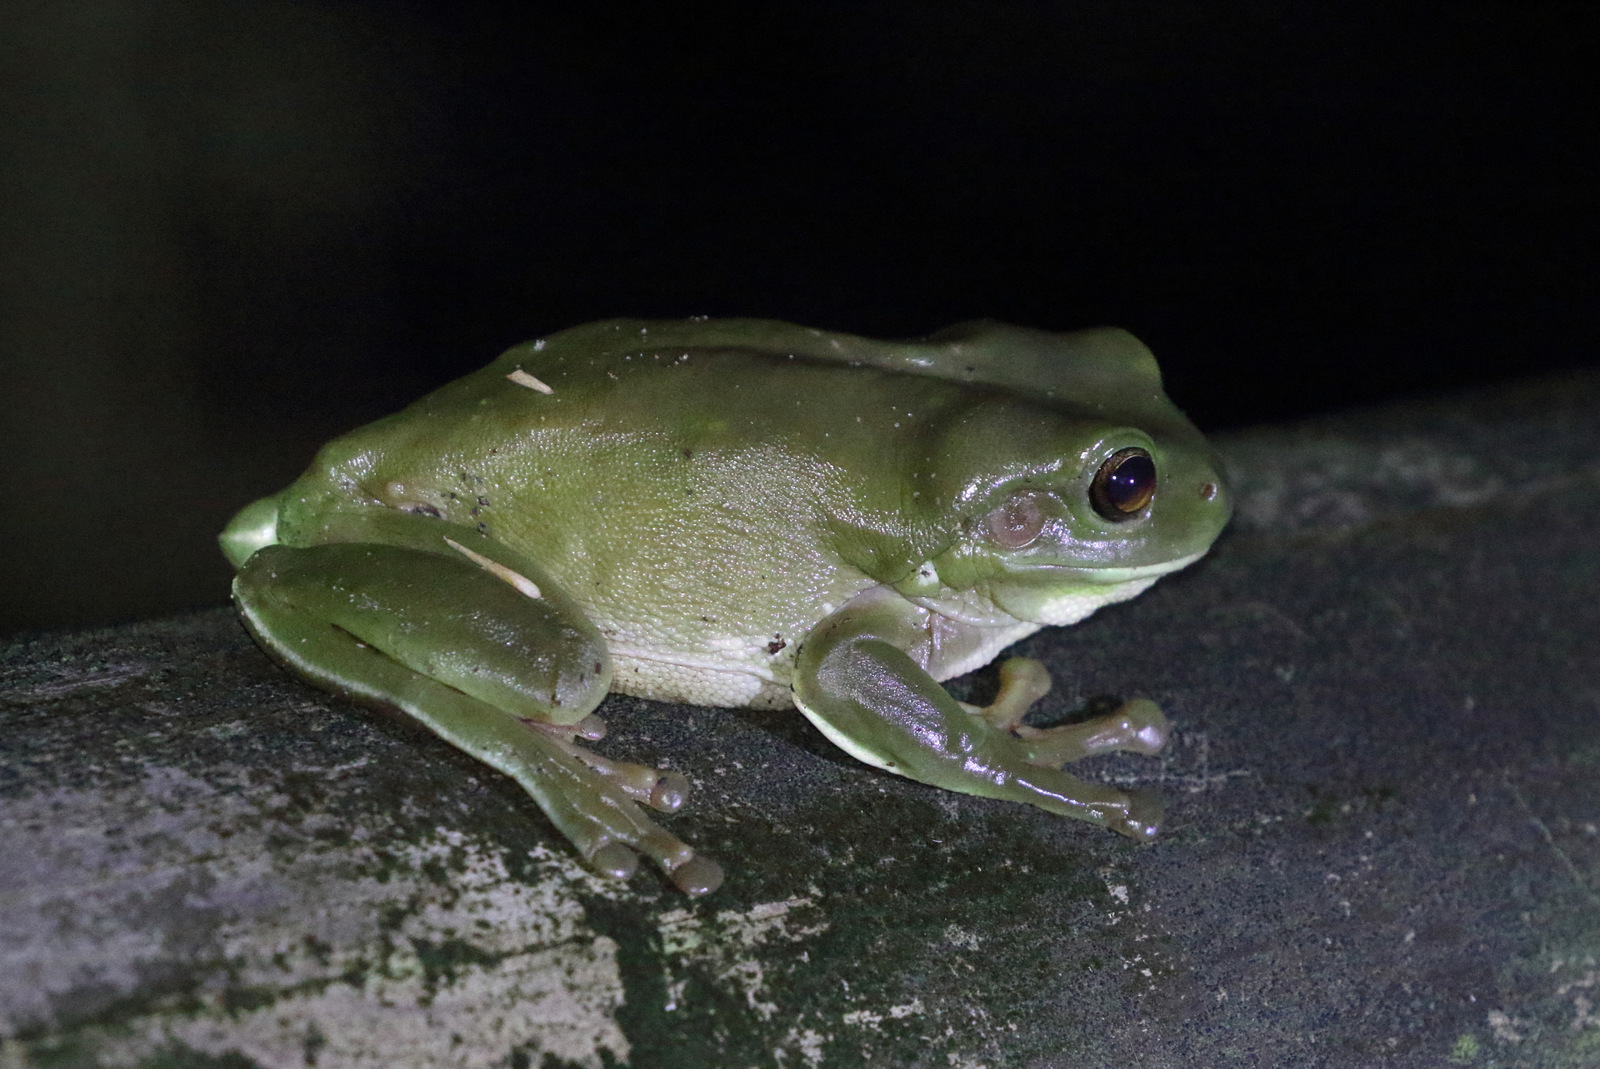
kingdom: Animalia
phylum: Chordata
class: Amphibia
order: Anura
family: Pelodryadidae
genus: Ranoidea
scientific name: Ranoidea caerulea
